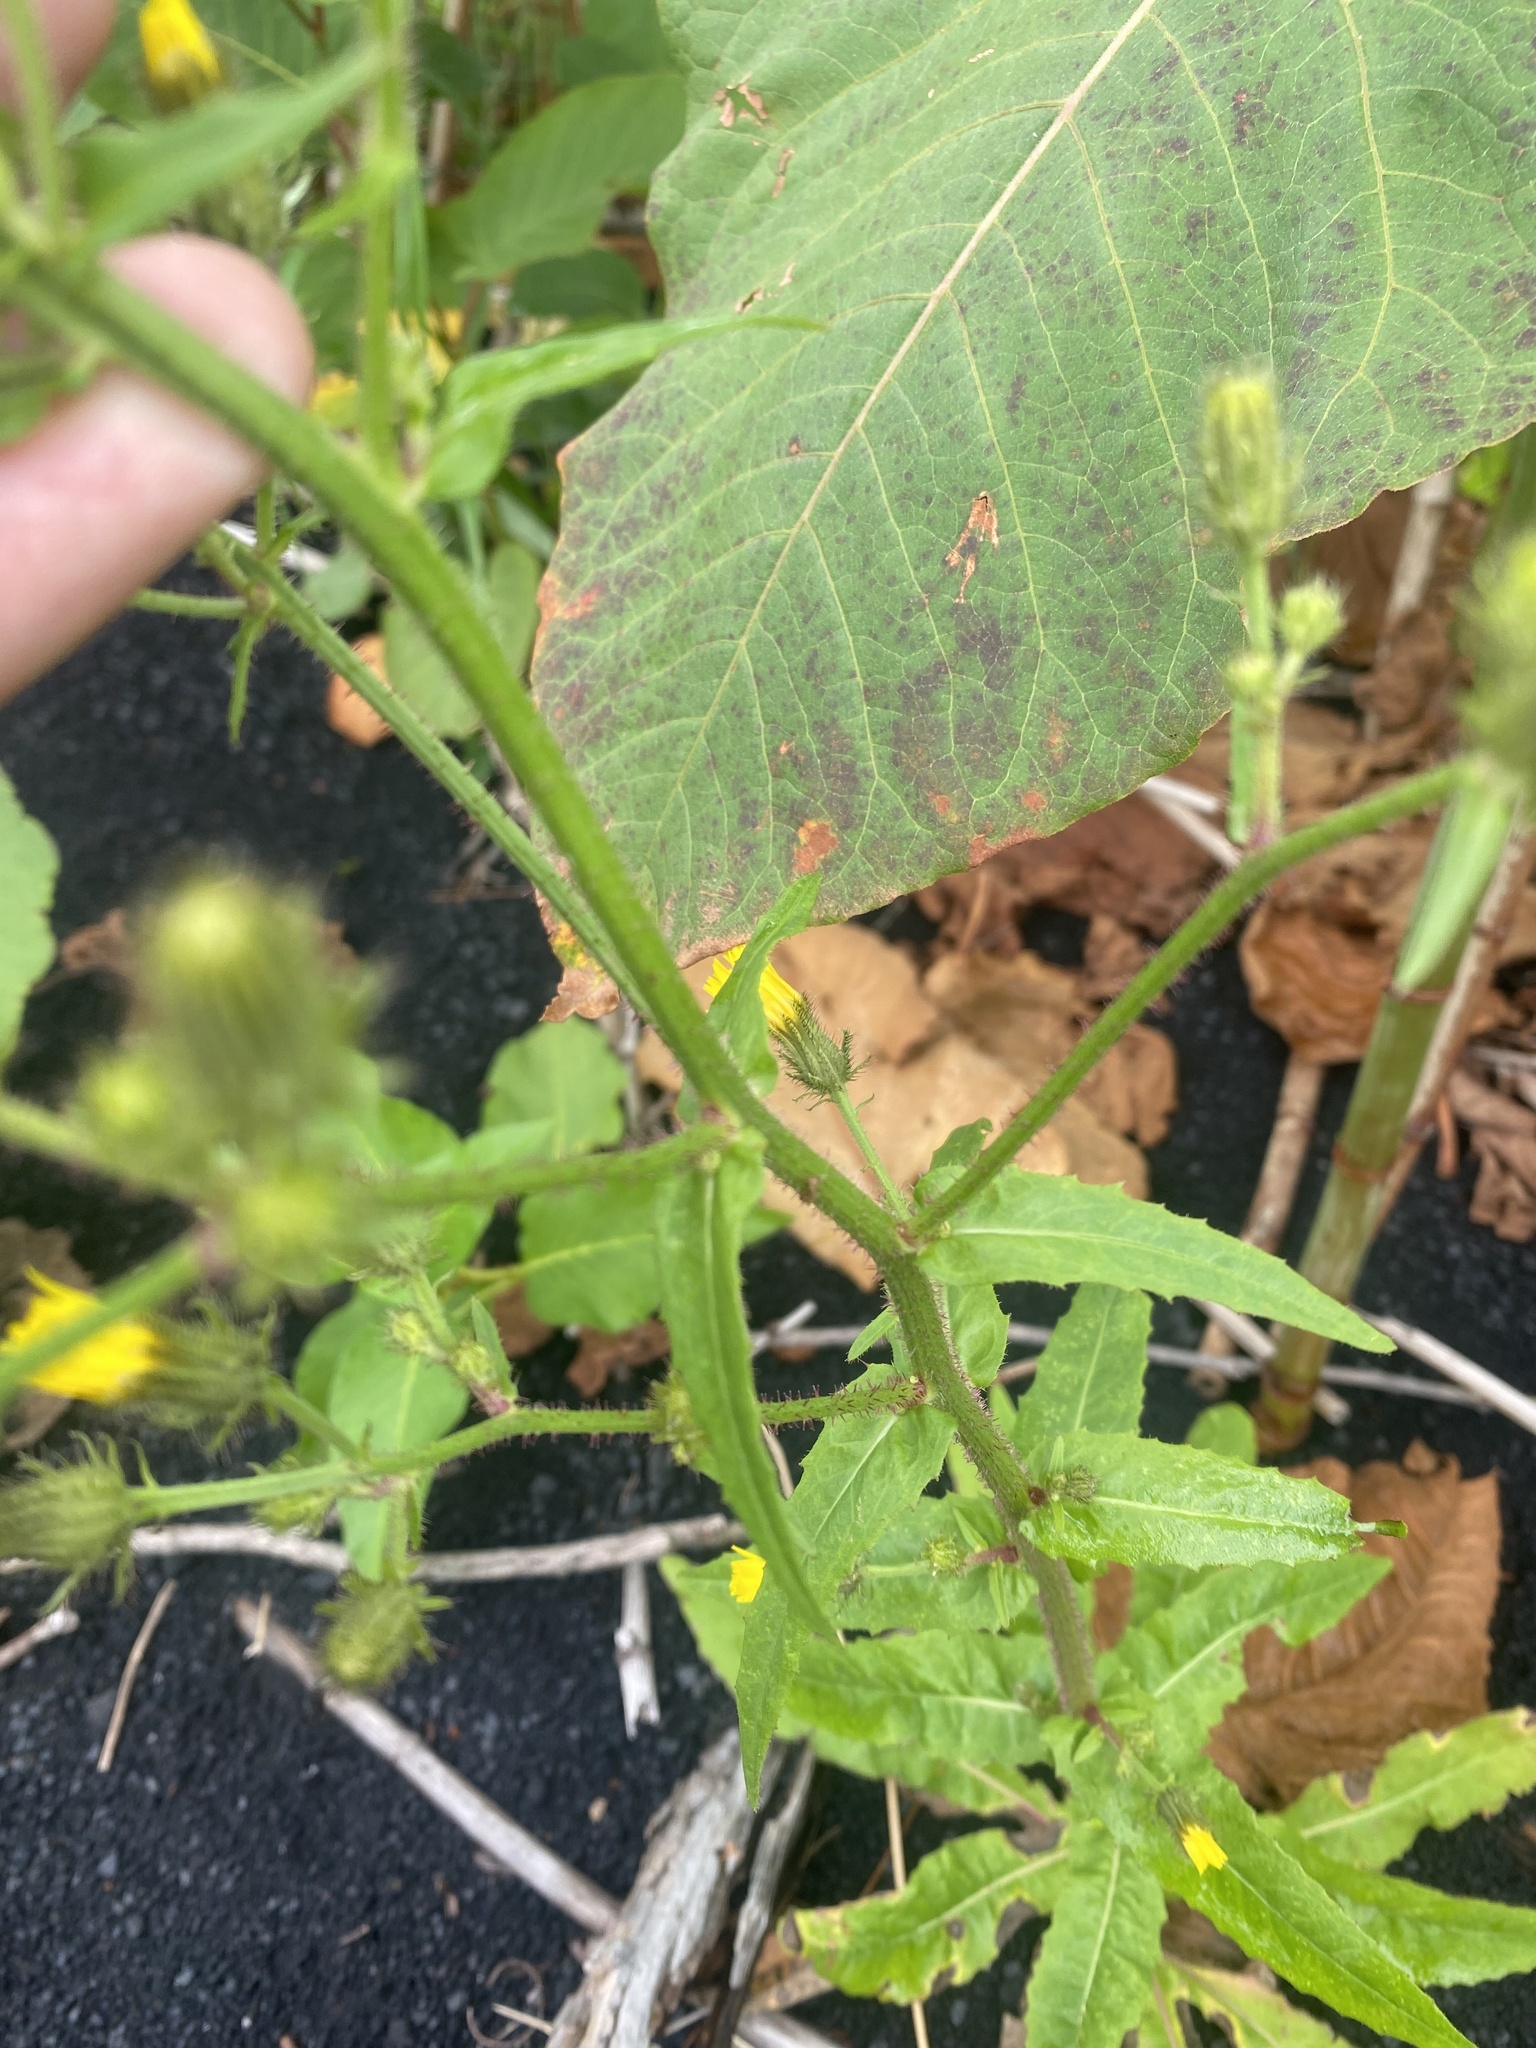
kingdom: Plantae
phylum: Tracheophyta
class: Magnoliopsida
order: Asterales
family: Asteraceae
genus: Picris
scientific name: Picris japonica
